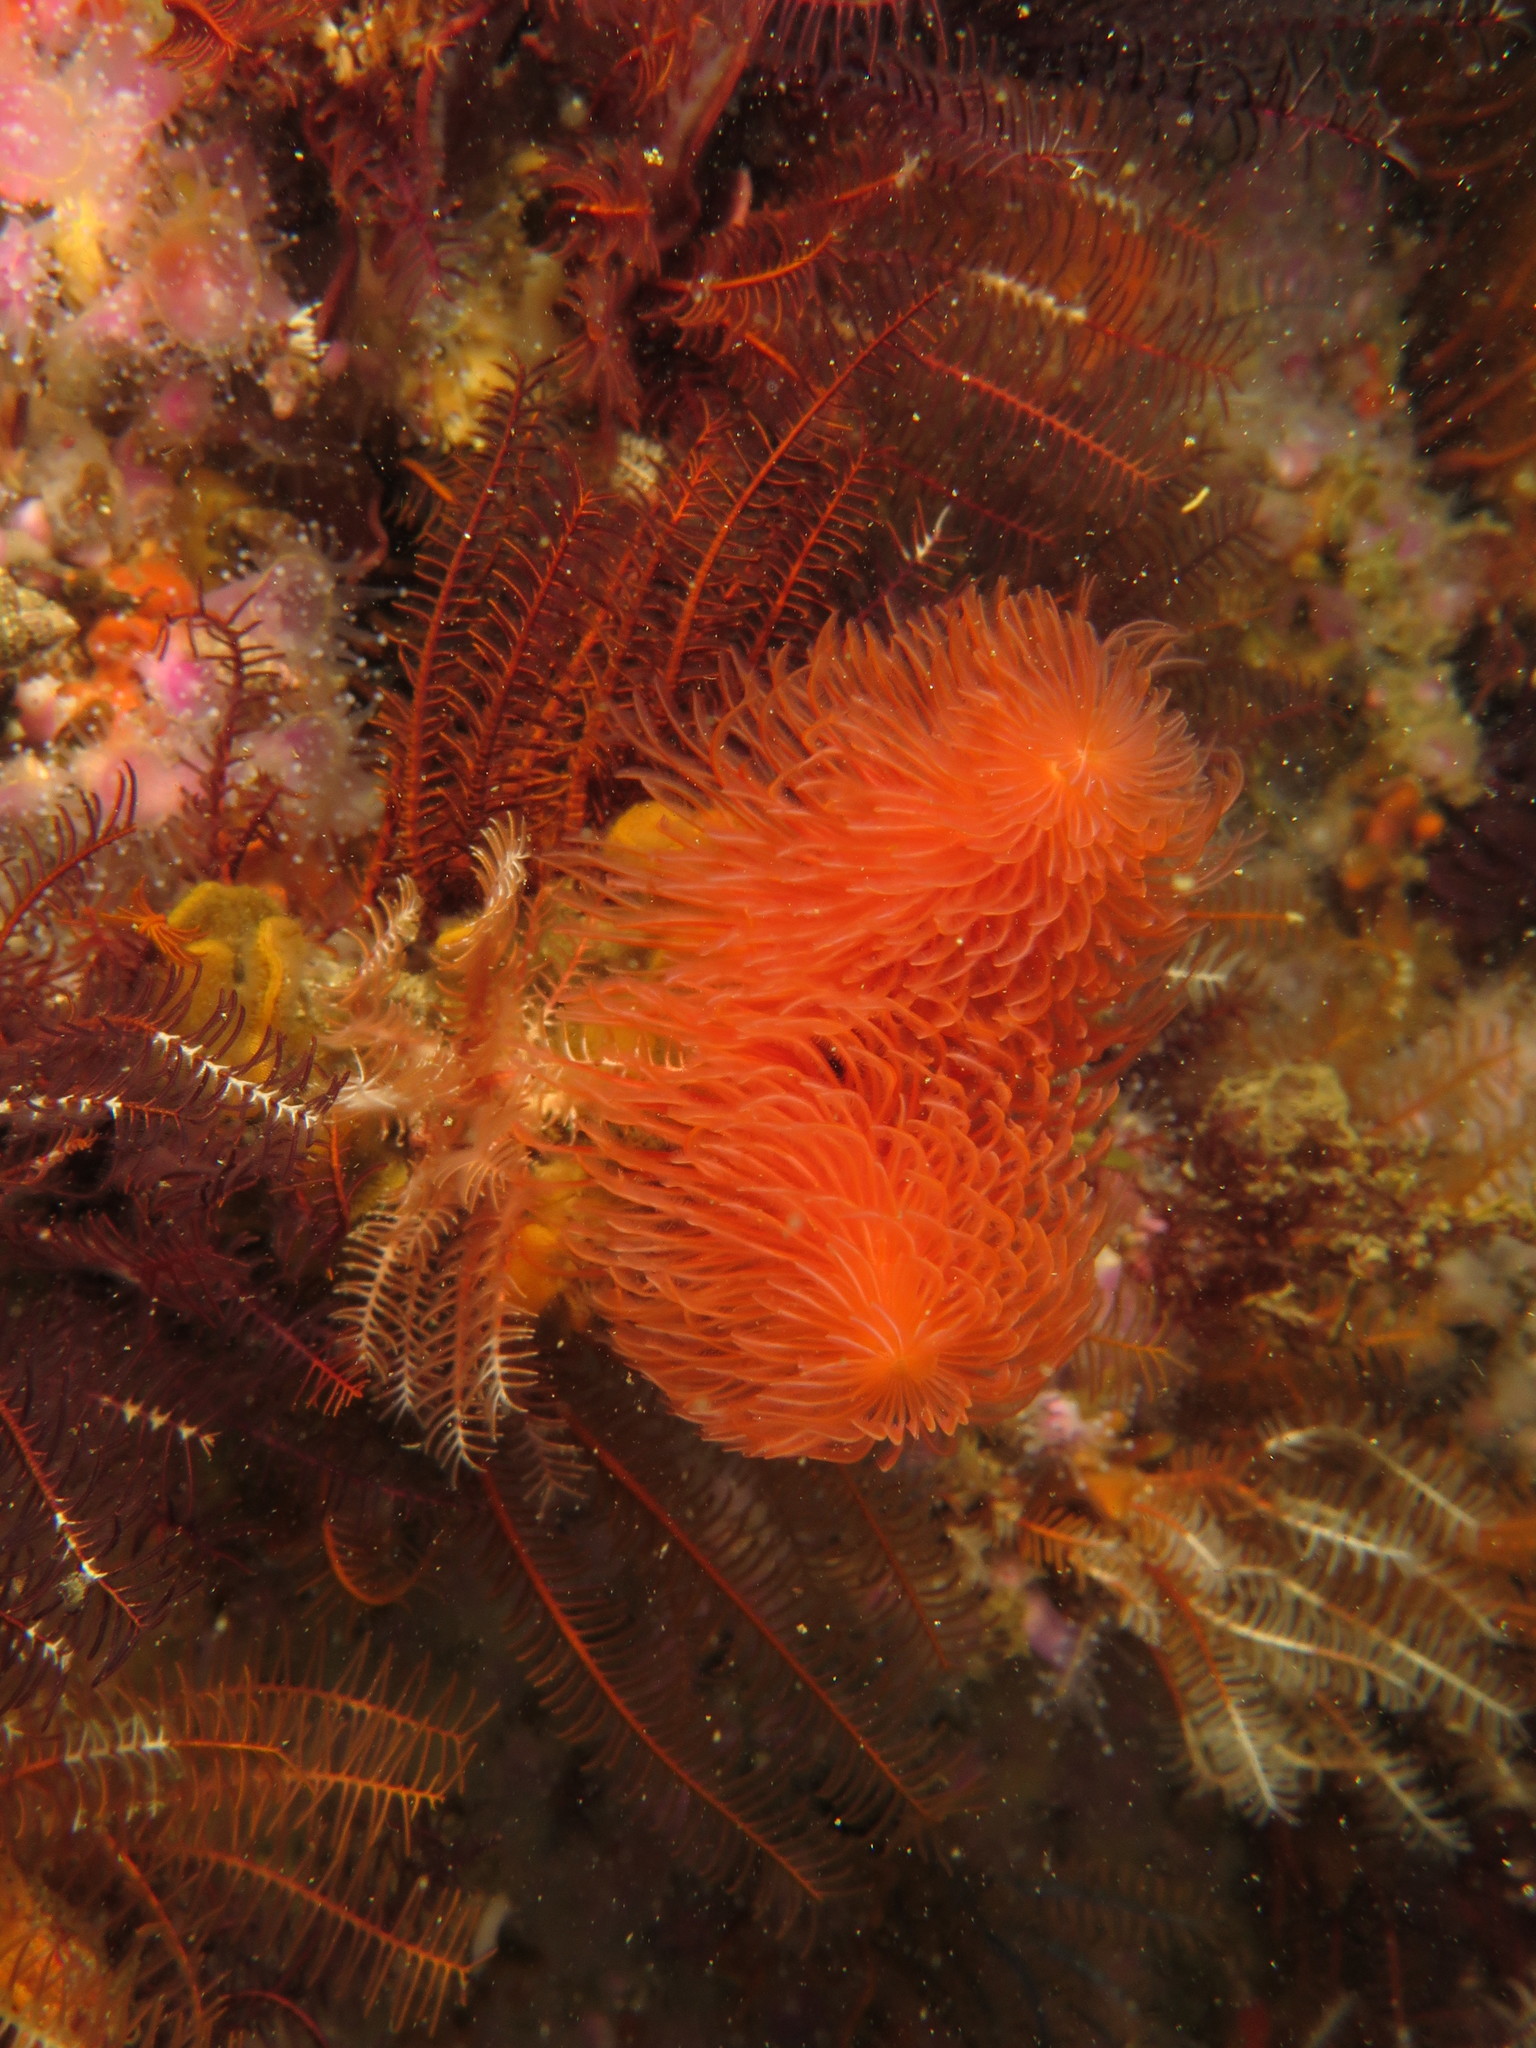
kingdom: Animalia
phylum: Annelida
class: Polychaeta
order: Sabellida
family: Serpulidae
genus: Protula
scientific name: Protula bispiralis
